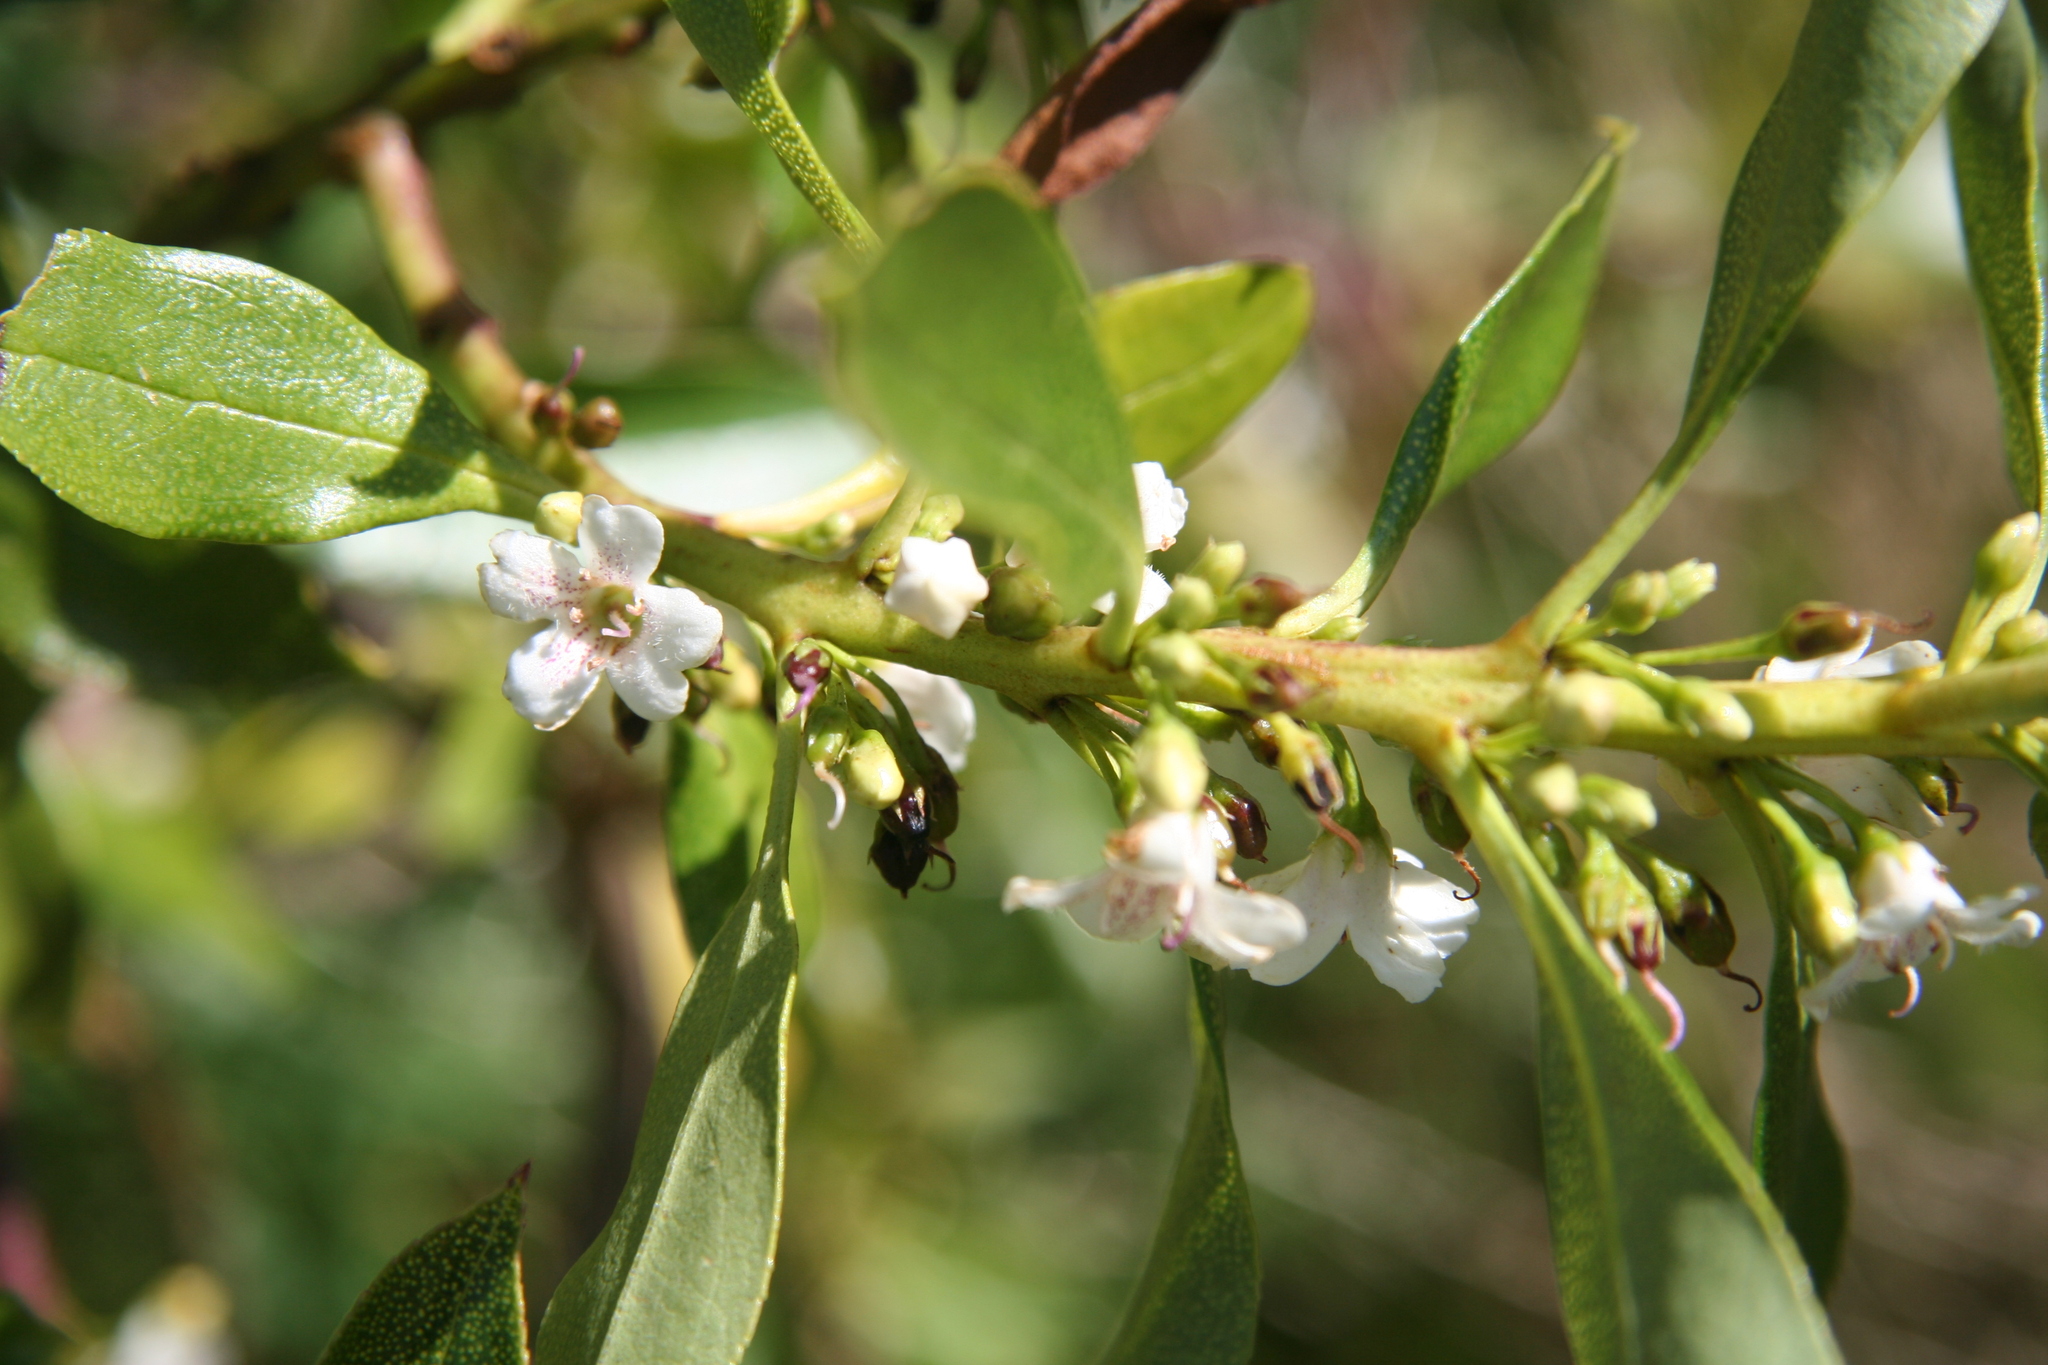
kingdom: Plantae
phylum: Tracheophyta
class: Magnoliopsida
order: Lamiales
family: Scrophulariaceae
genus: Myoporum
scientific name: Myoporum laetum
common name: Ngaio tree
